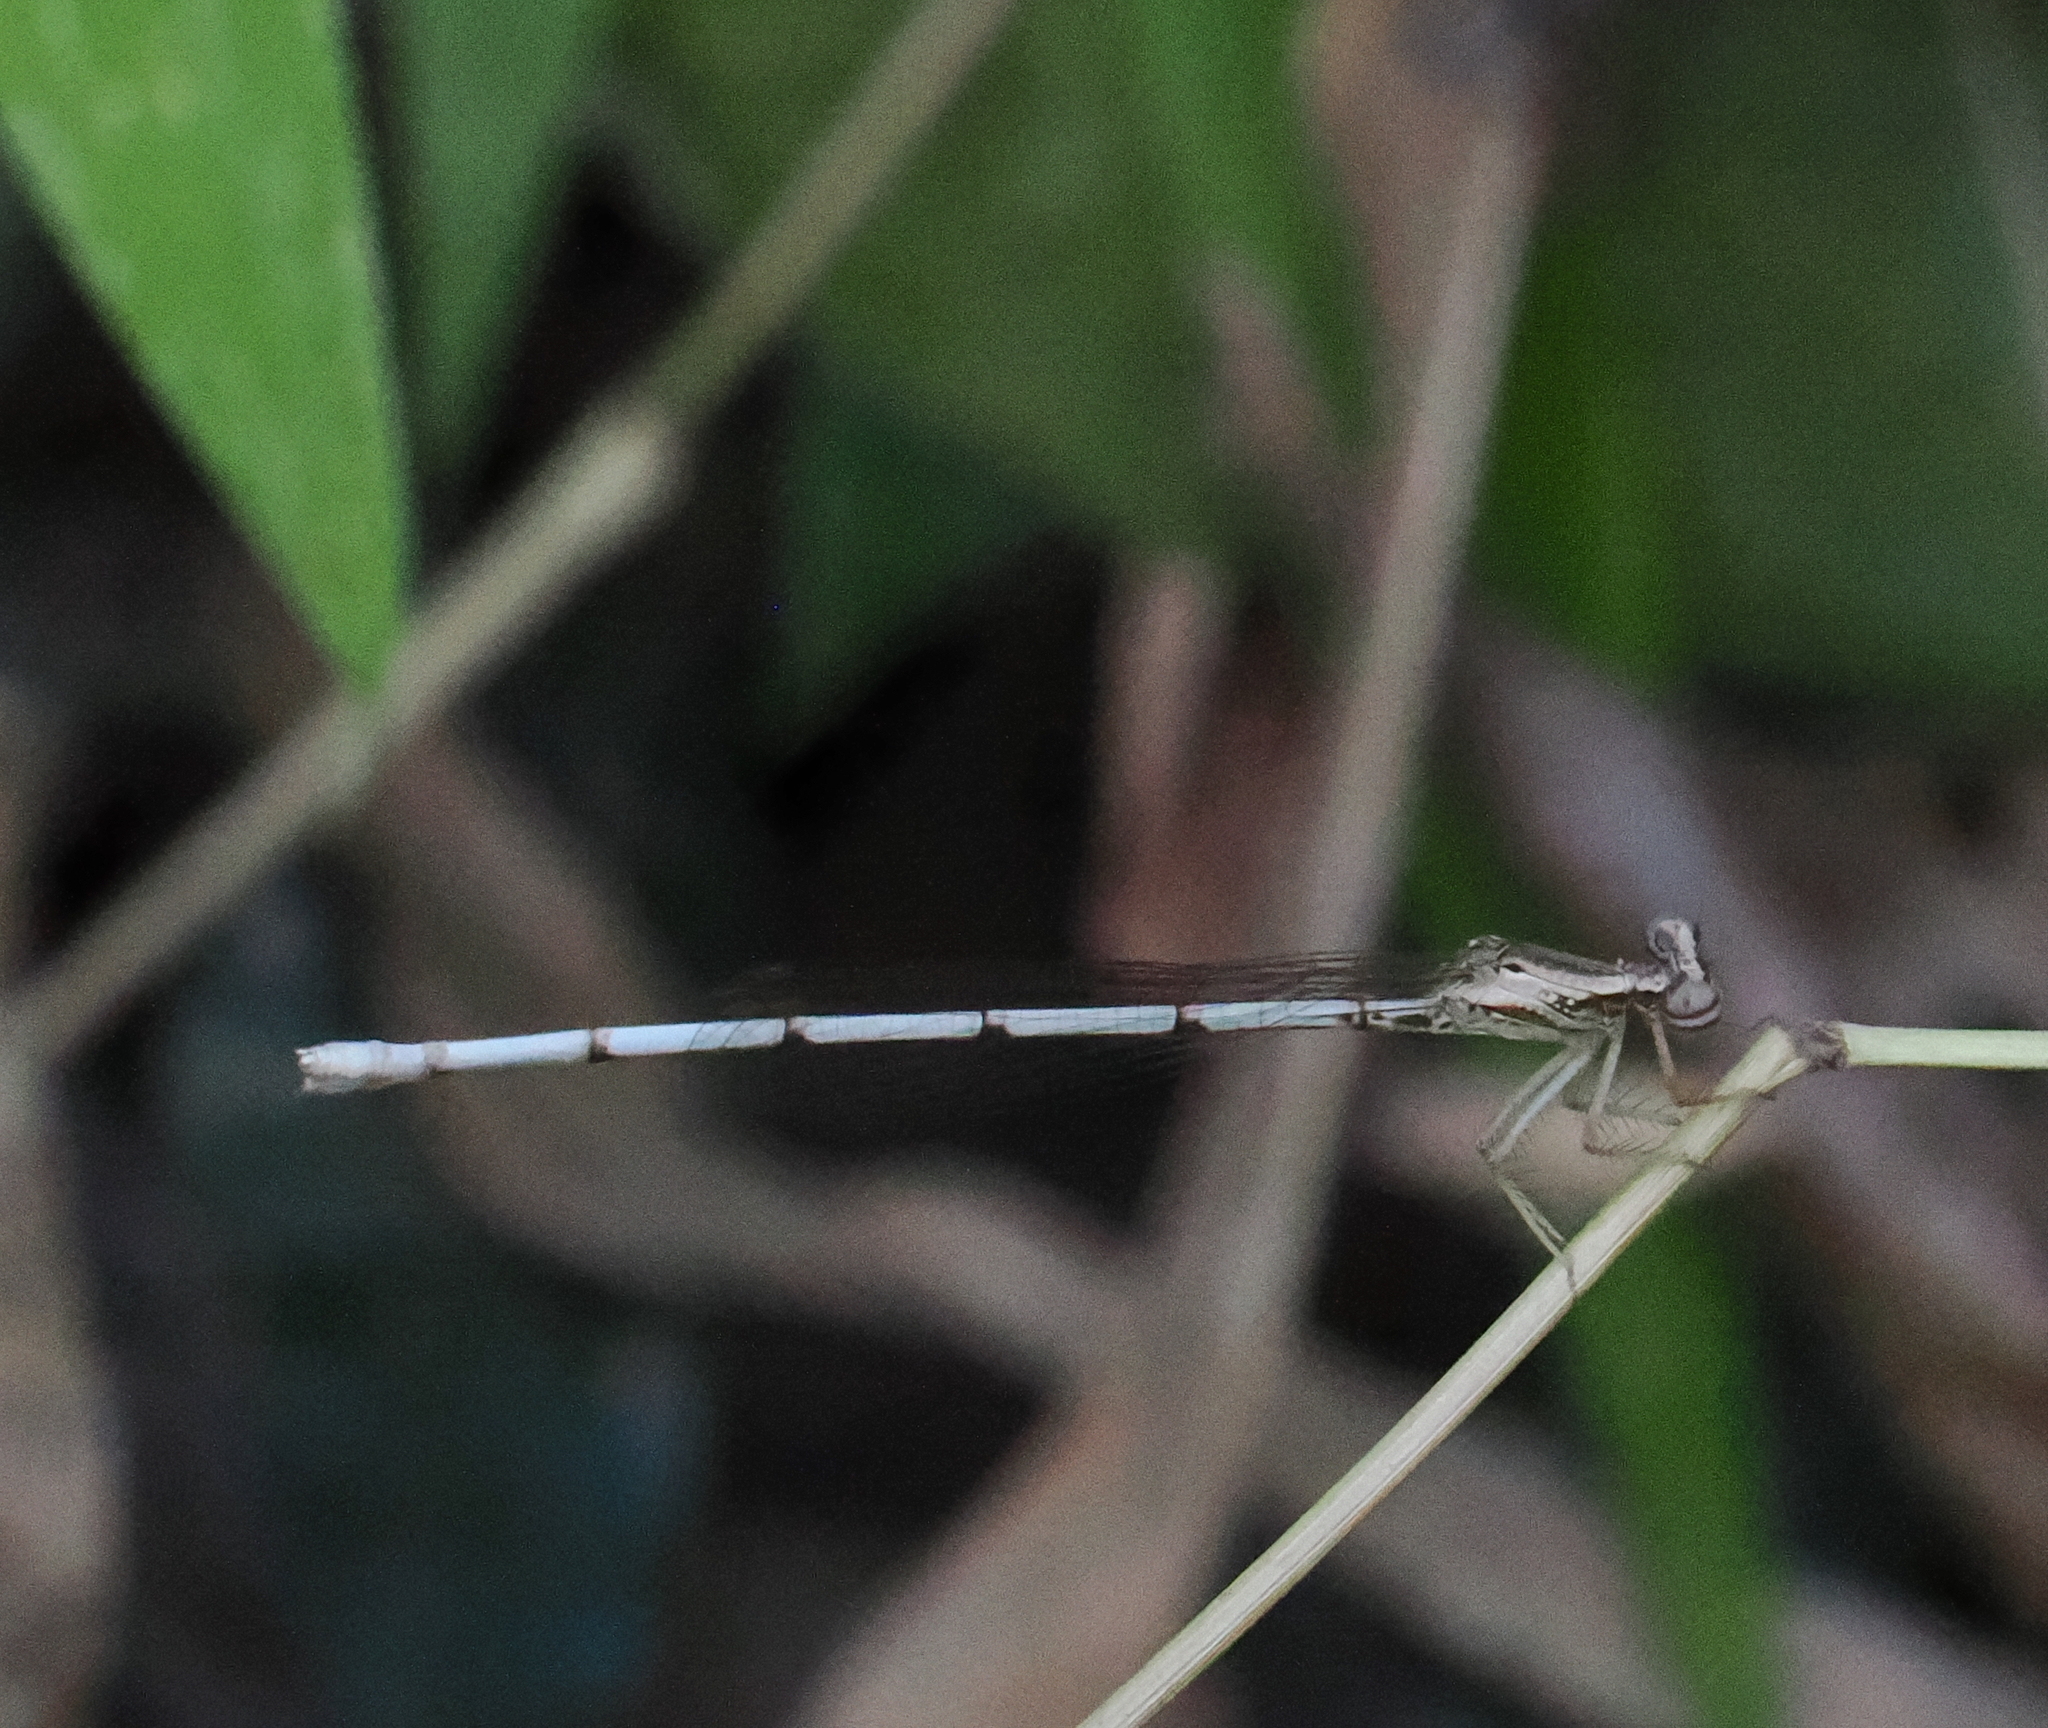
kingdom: Animalia
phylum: Arthropoda
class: Insecta
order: Odonata
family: Platycnemididae
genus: Copera
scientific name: Copera marginipes
